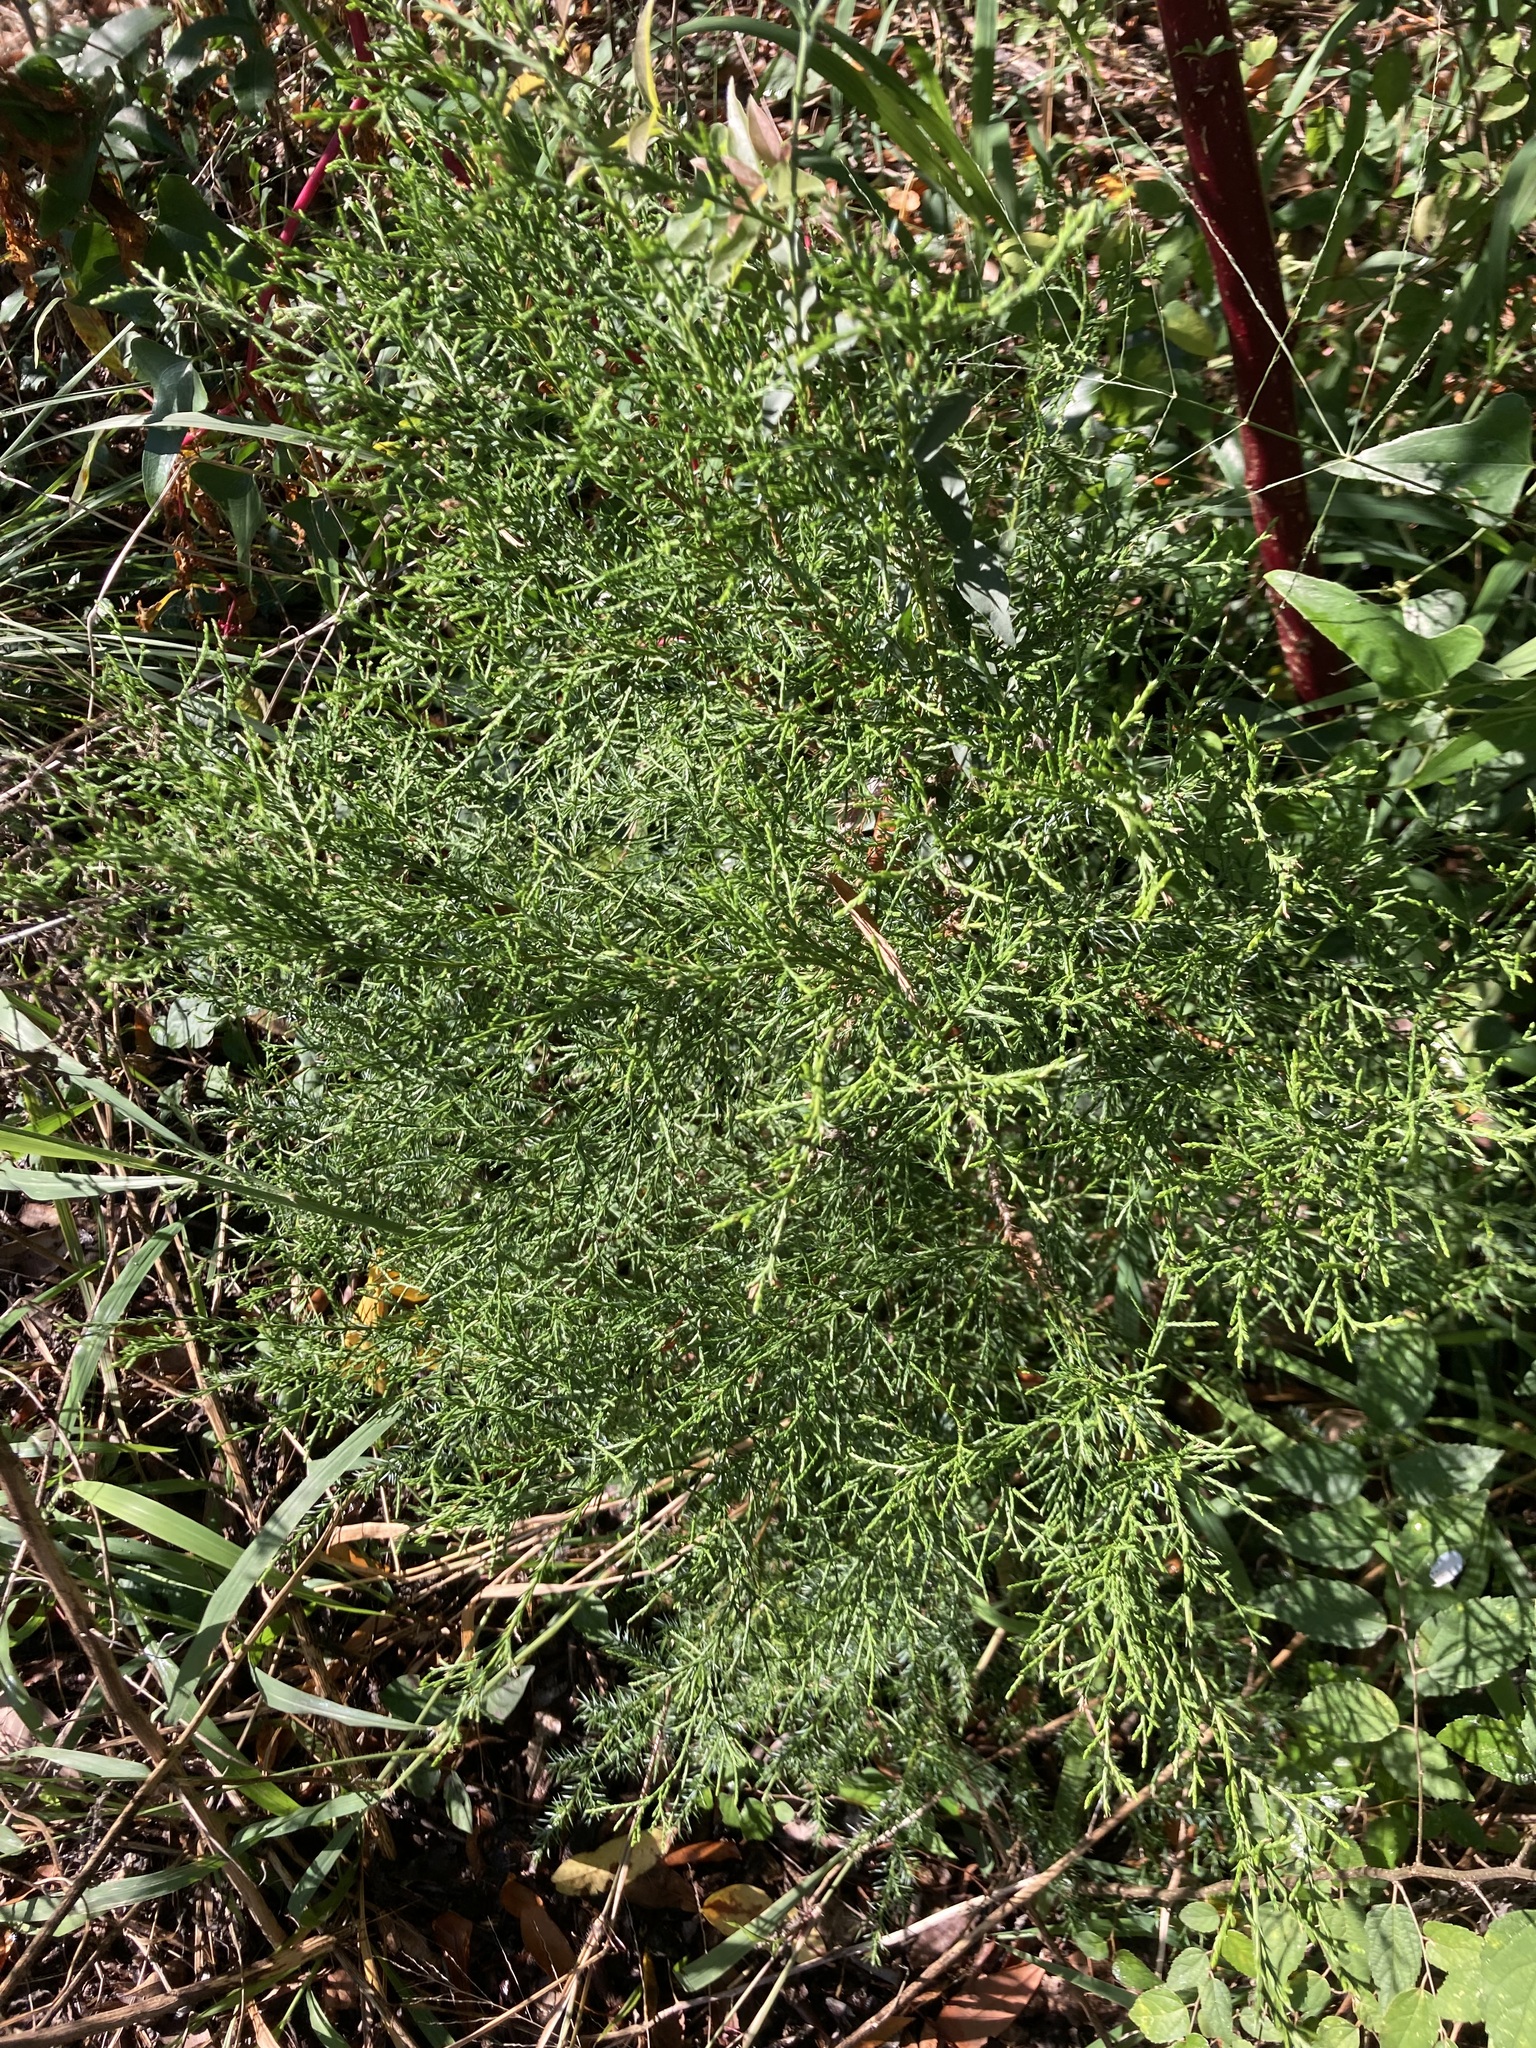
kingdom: Plantae
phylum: Tracheophyta
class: Pinopsida
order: Pinales
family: Cupressaceae
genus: Juniperus
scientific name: Juniperus virginiana
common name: Red juniper
